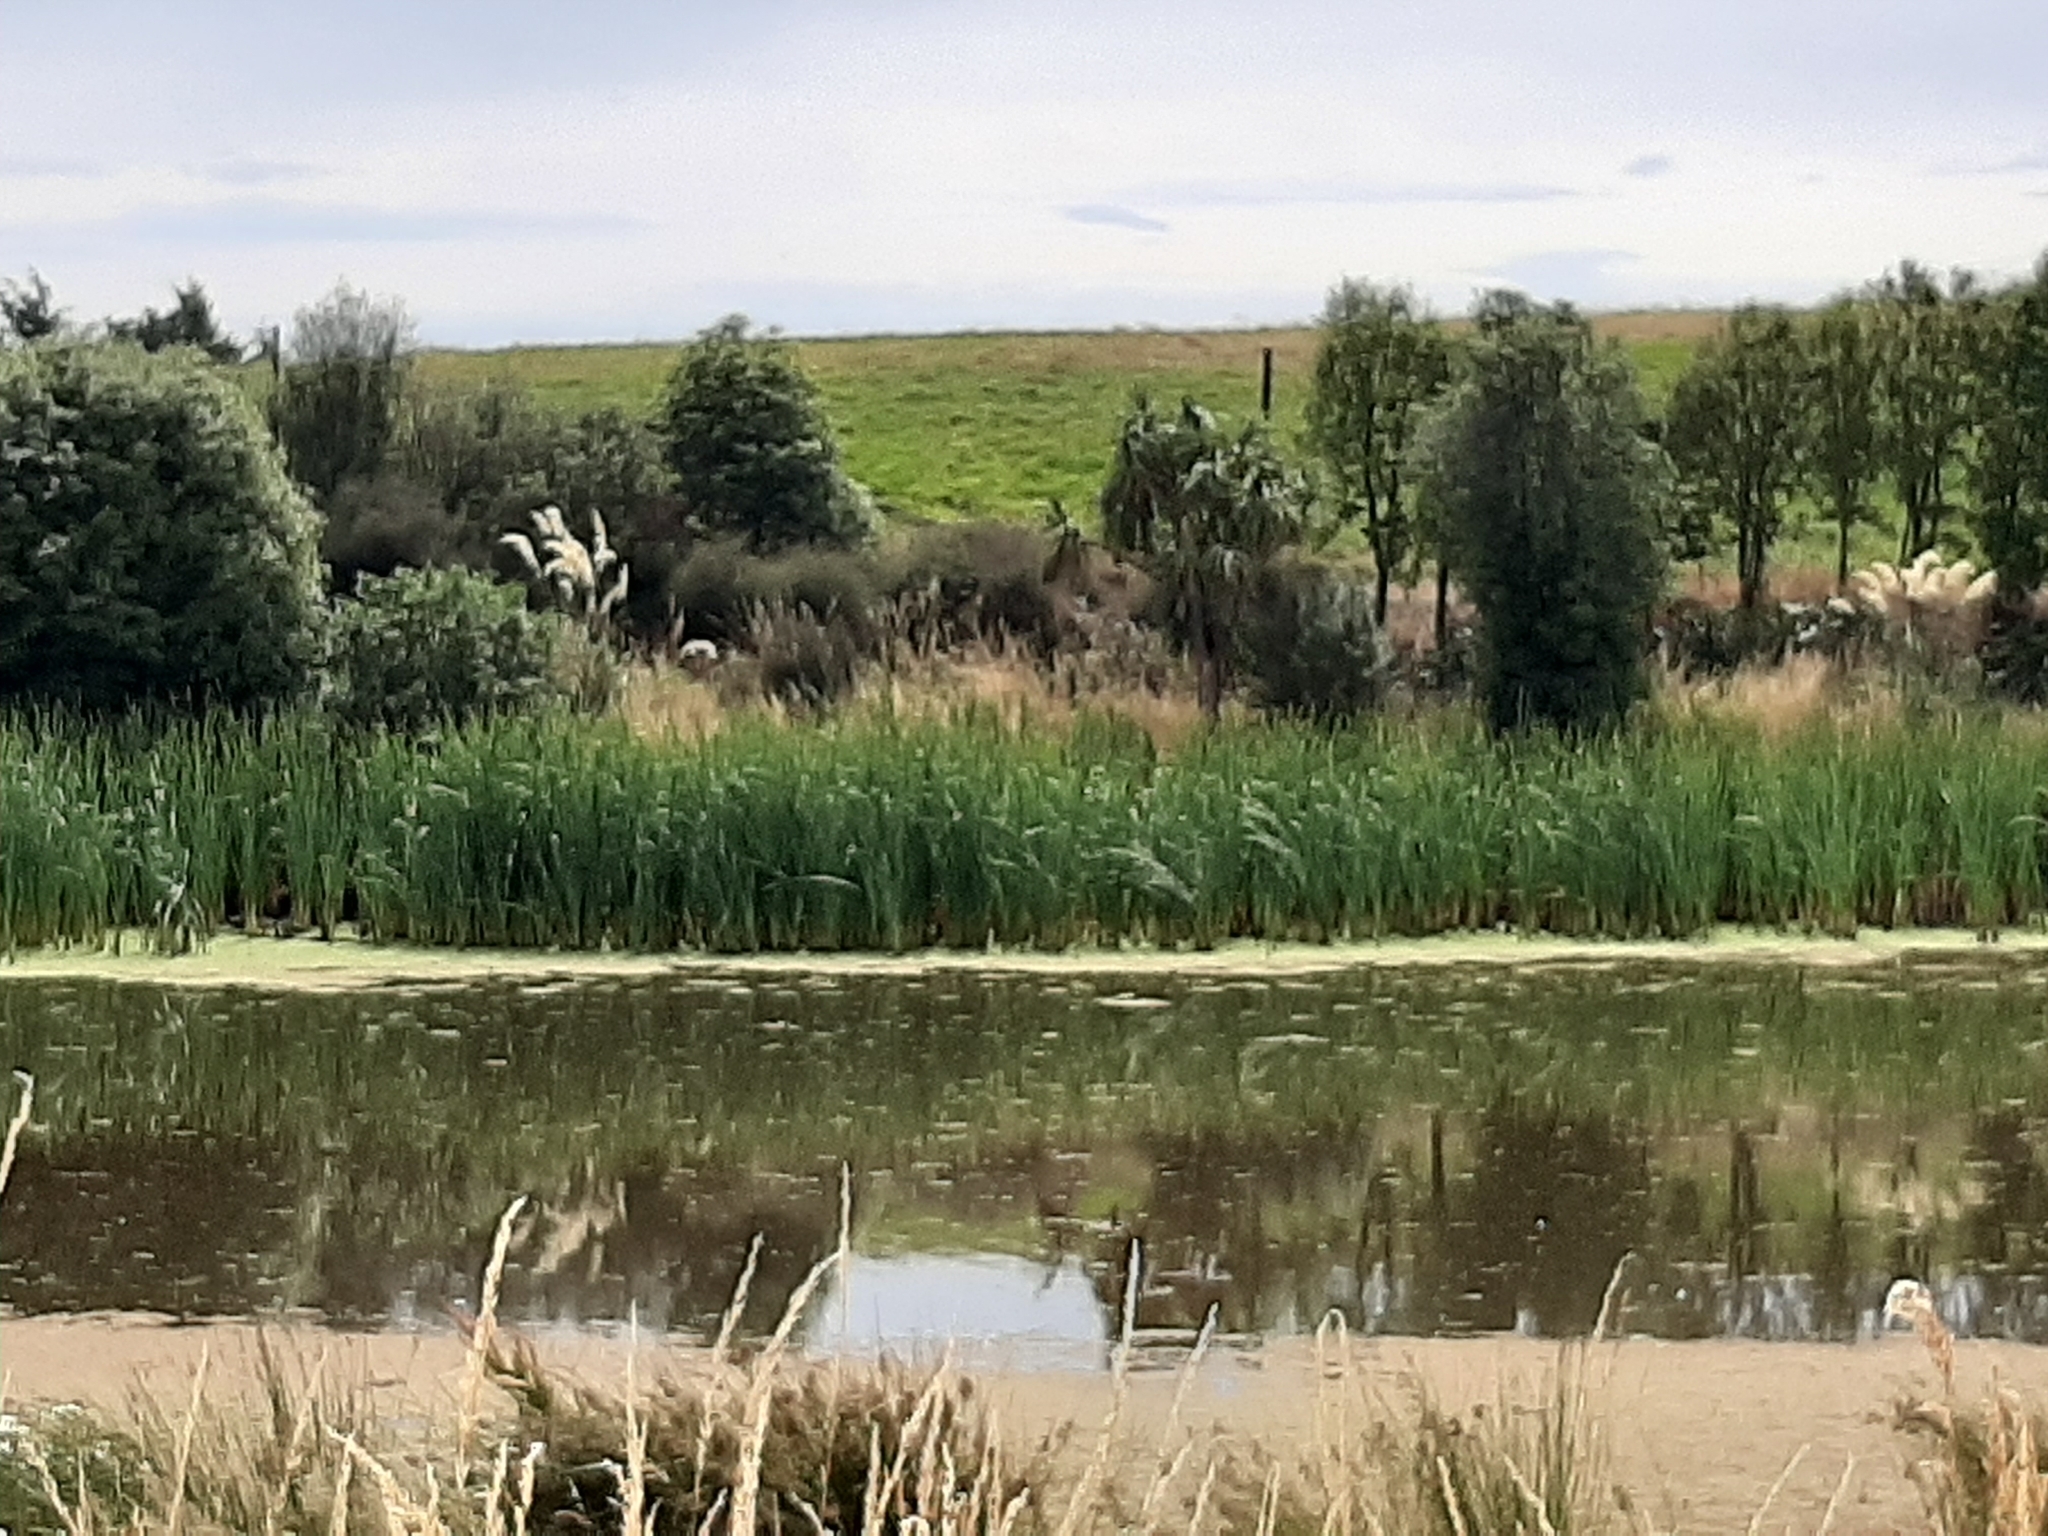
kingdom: Plantae
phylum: Tracheophyta
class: Liliopsida
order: Poales
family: Typhaceae
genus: Typha
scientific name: Typha orientalis
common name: Bullrush
